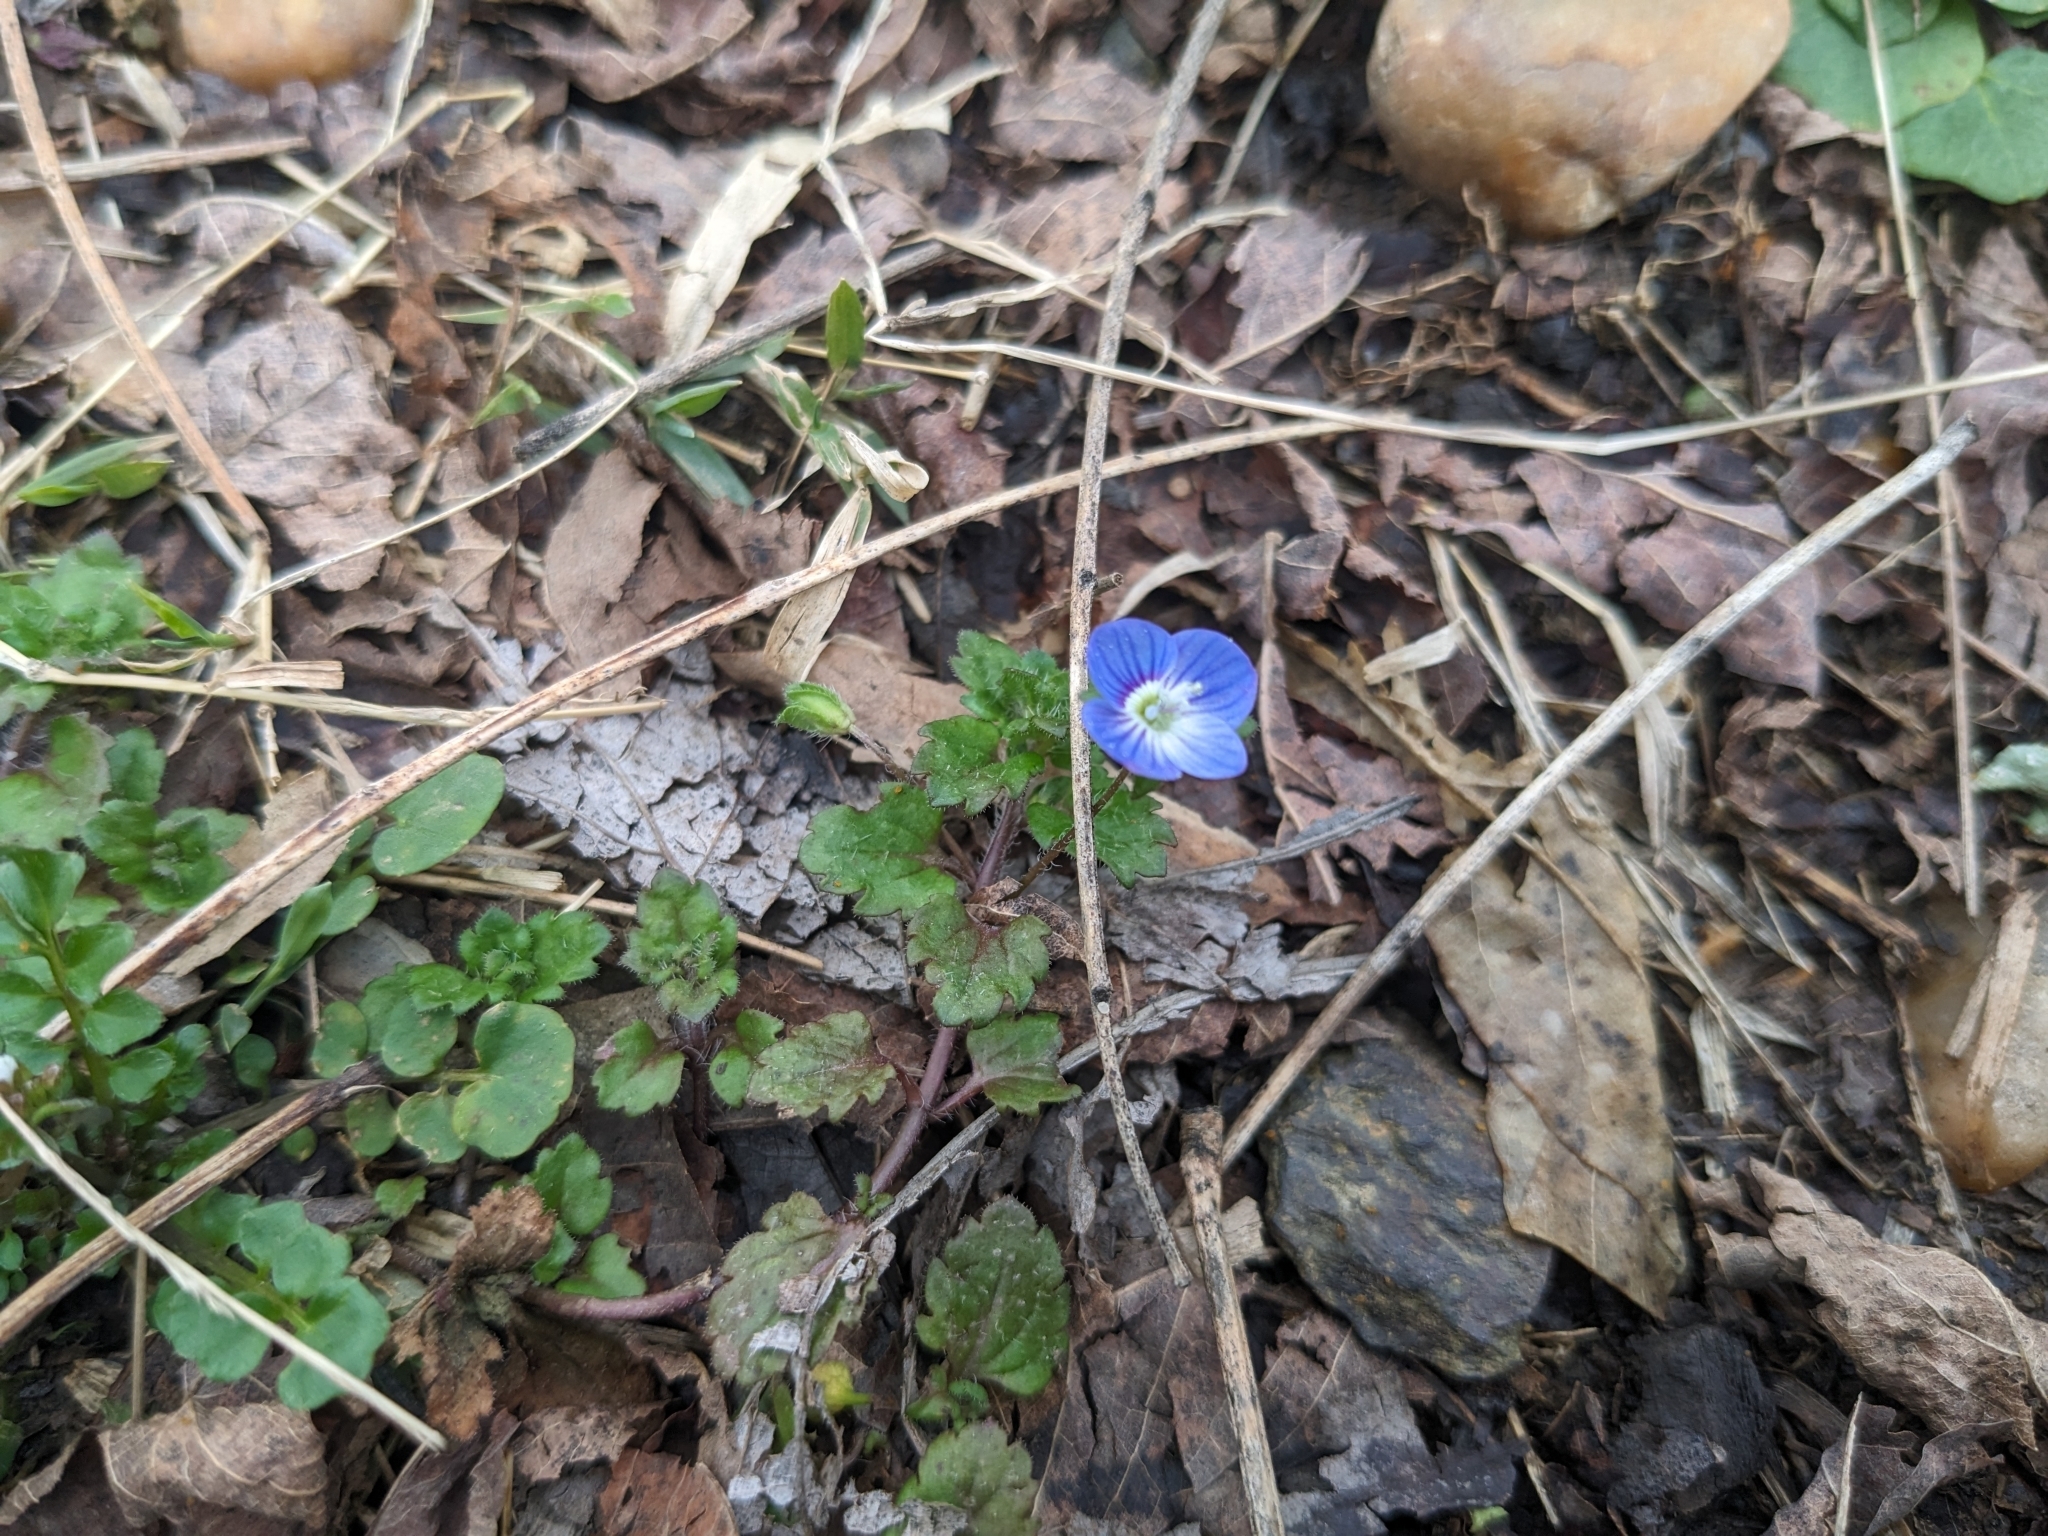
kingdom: Plantae
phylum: Tracheophyta
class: Magnoliopsida
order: Lamiales
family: Plantaginaceae
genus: Veronica
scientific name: Veronica persica
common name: Common field-speedwell
